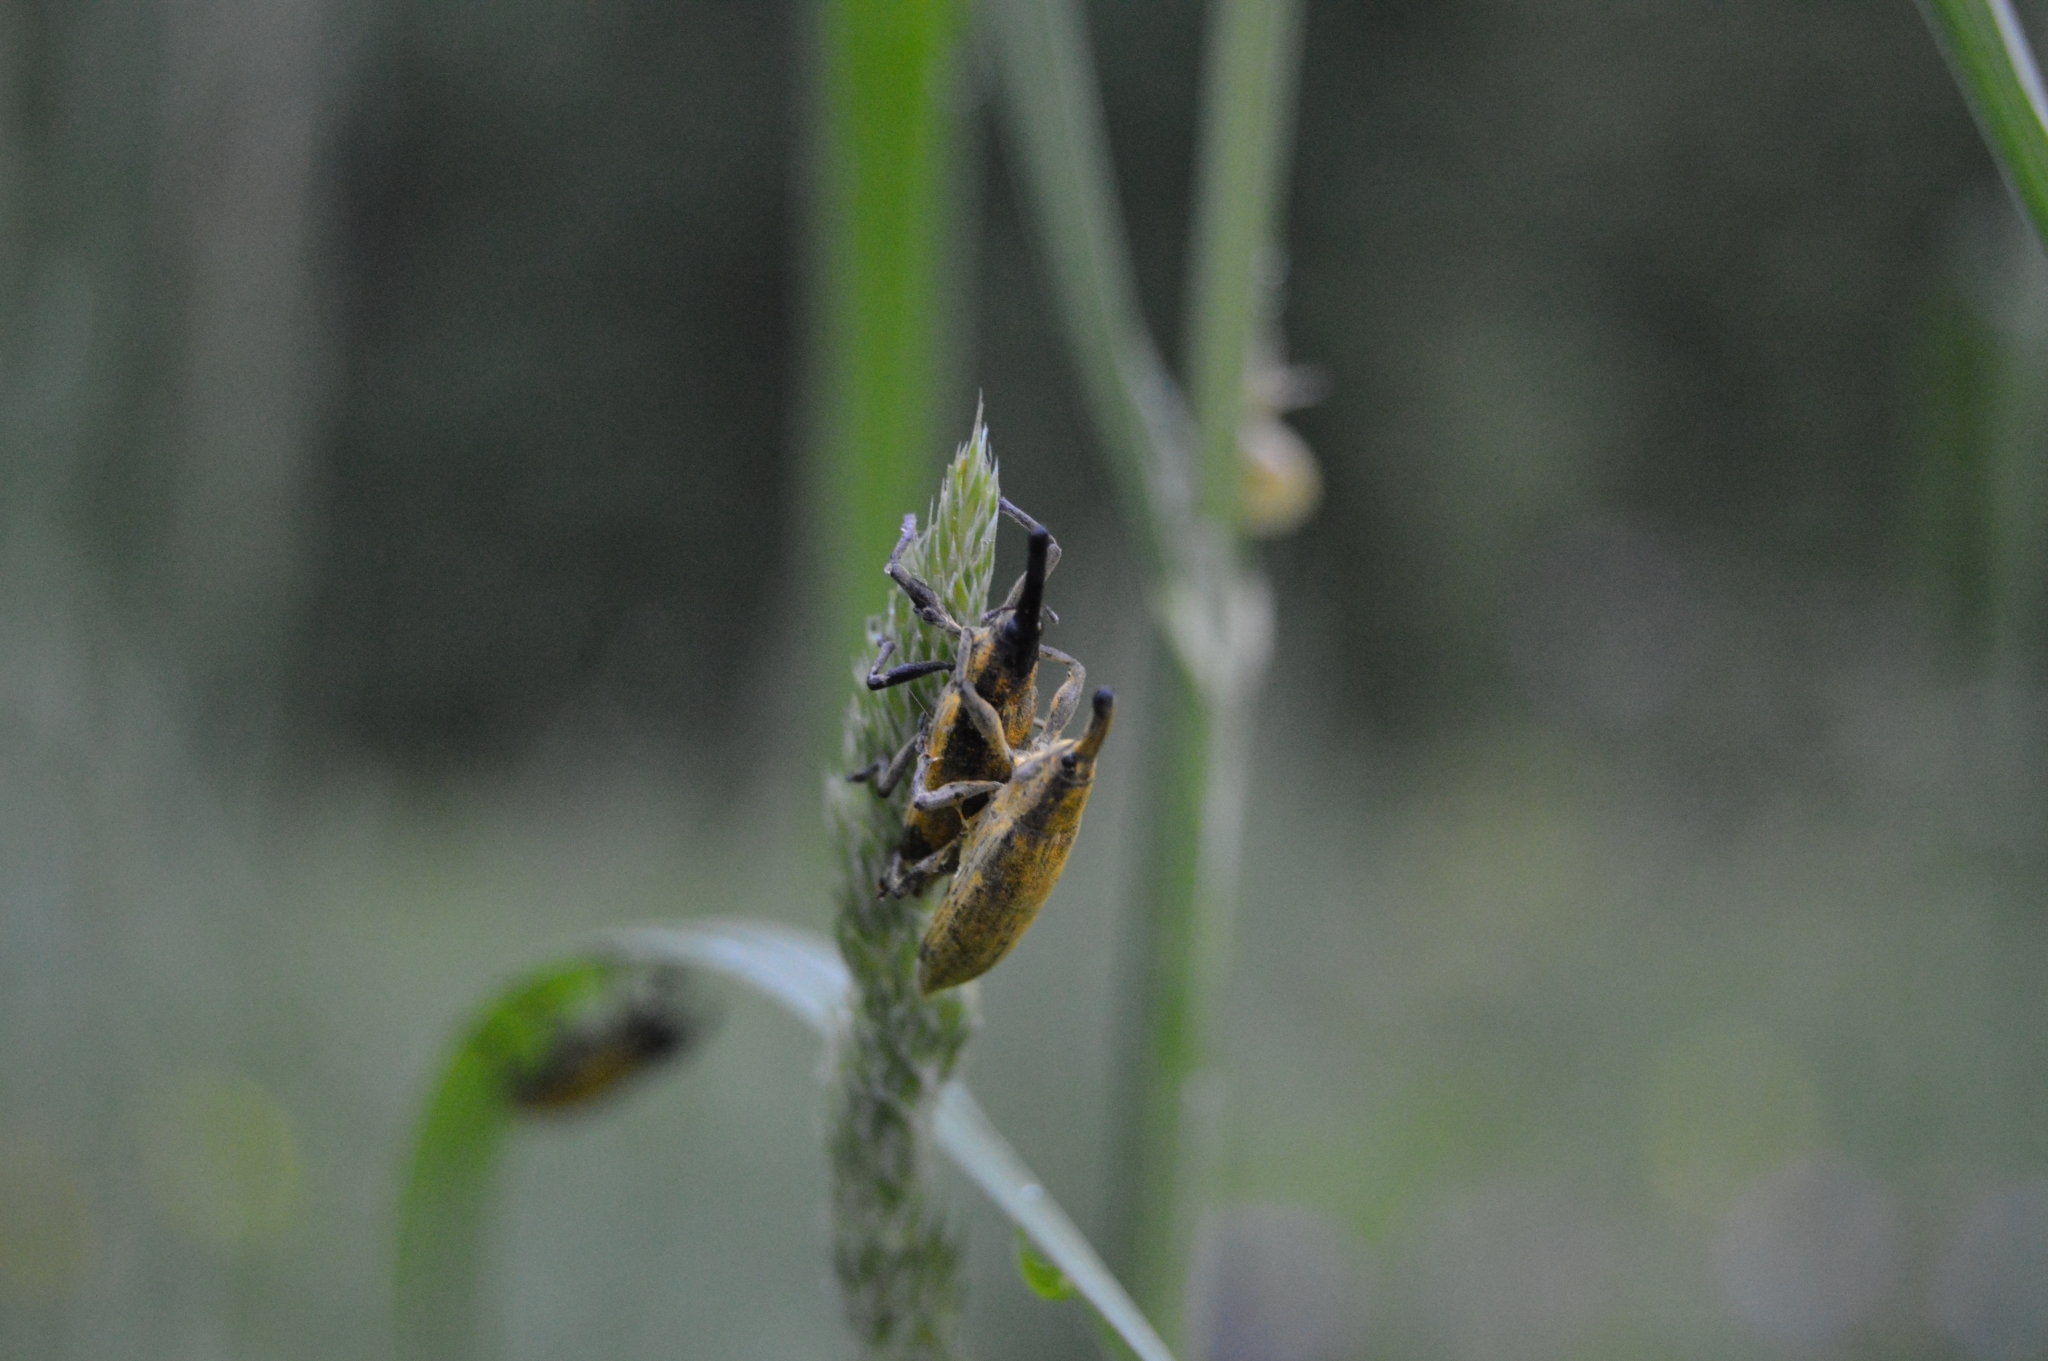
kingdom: Animalia
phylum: Arthropoda
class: Insecta
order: Coleoptera
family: Curculionidae
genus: Lixus
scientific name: Lixus iridis
